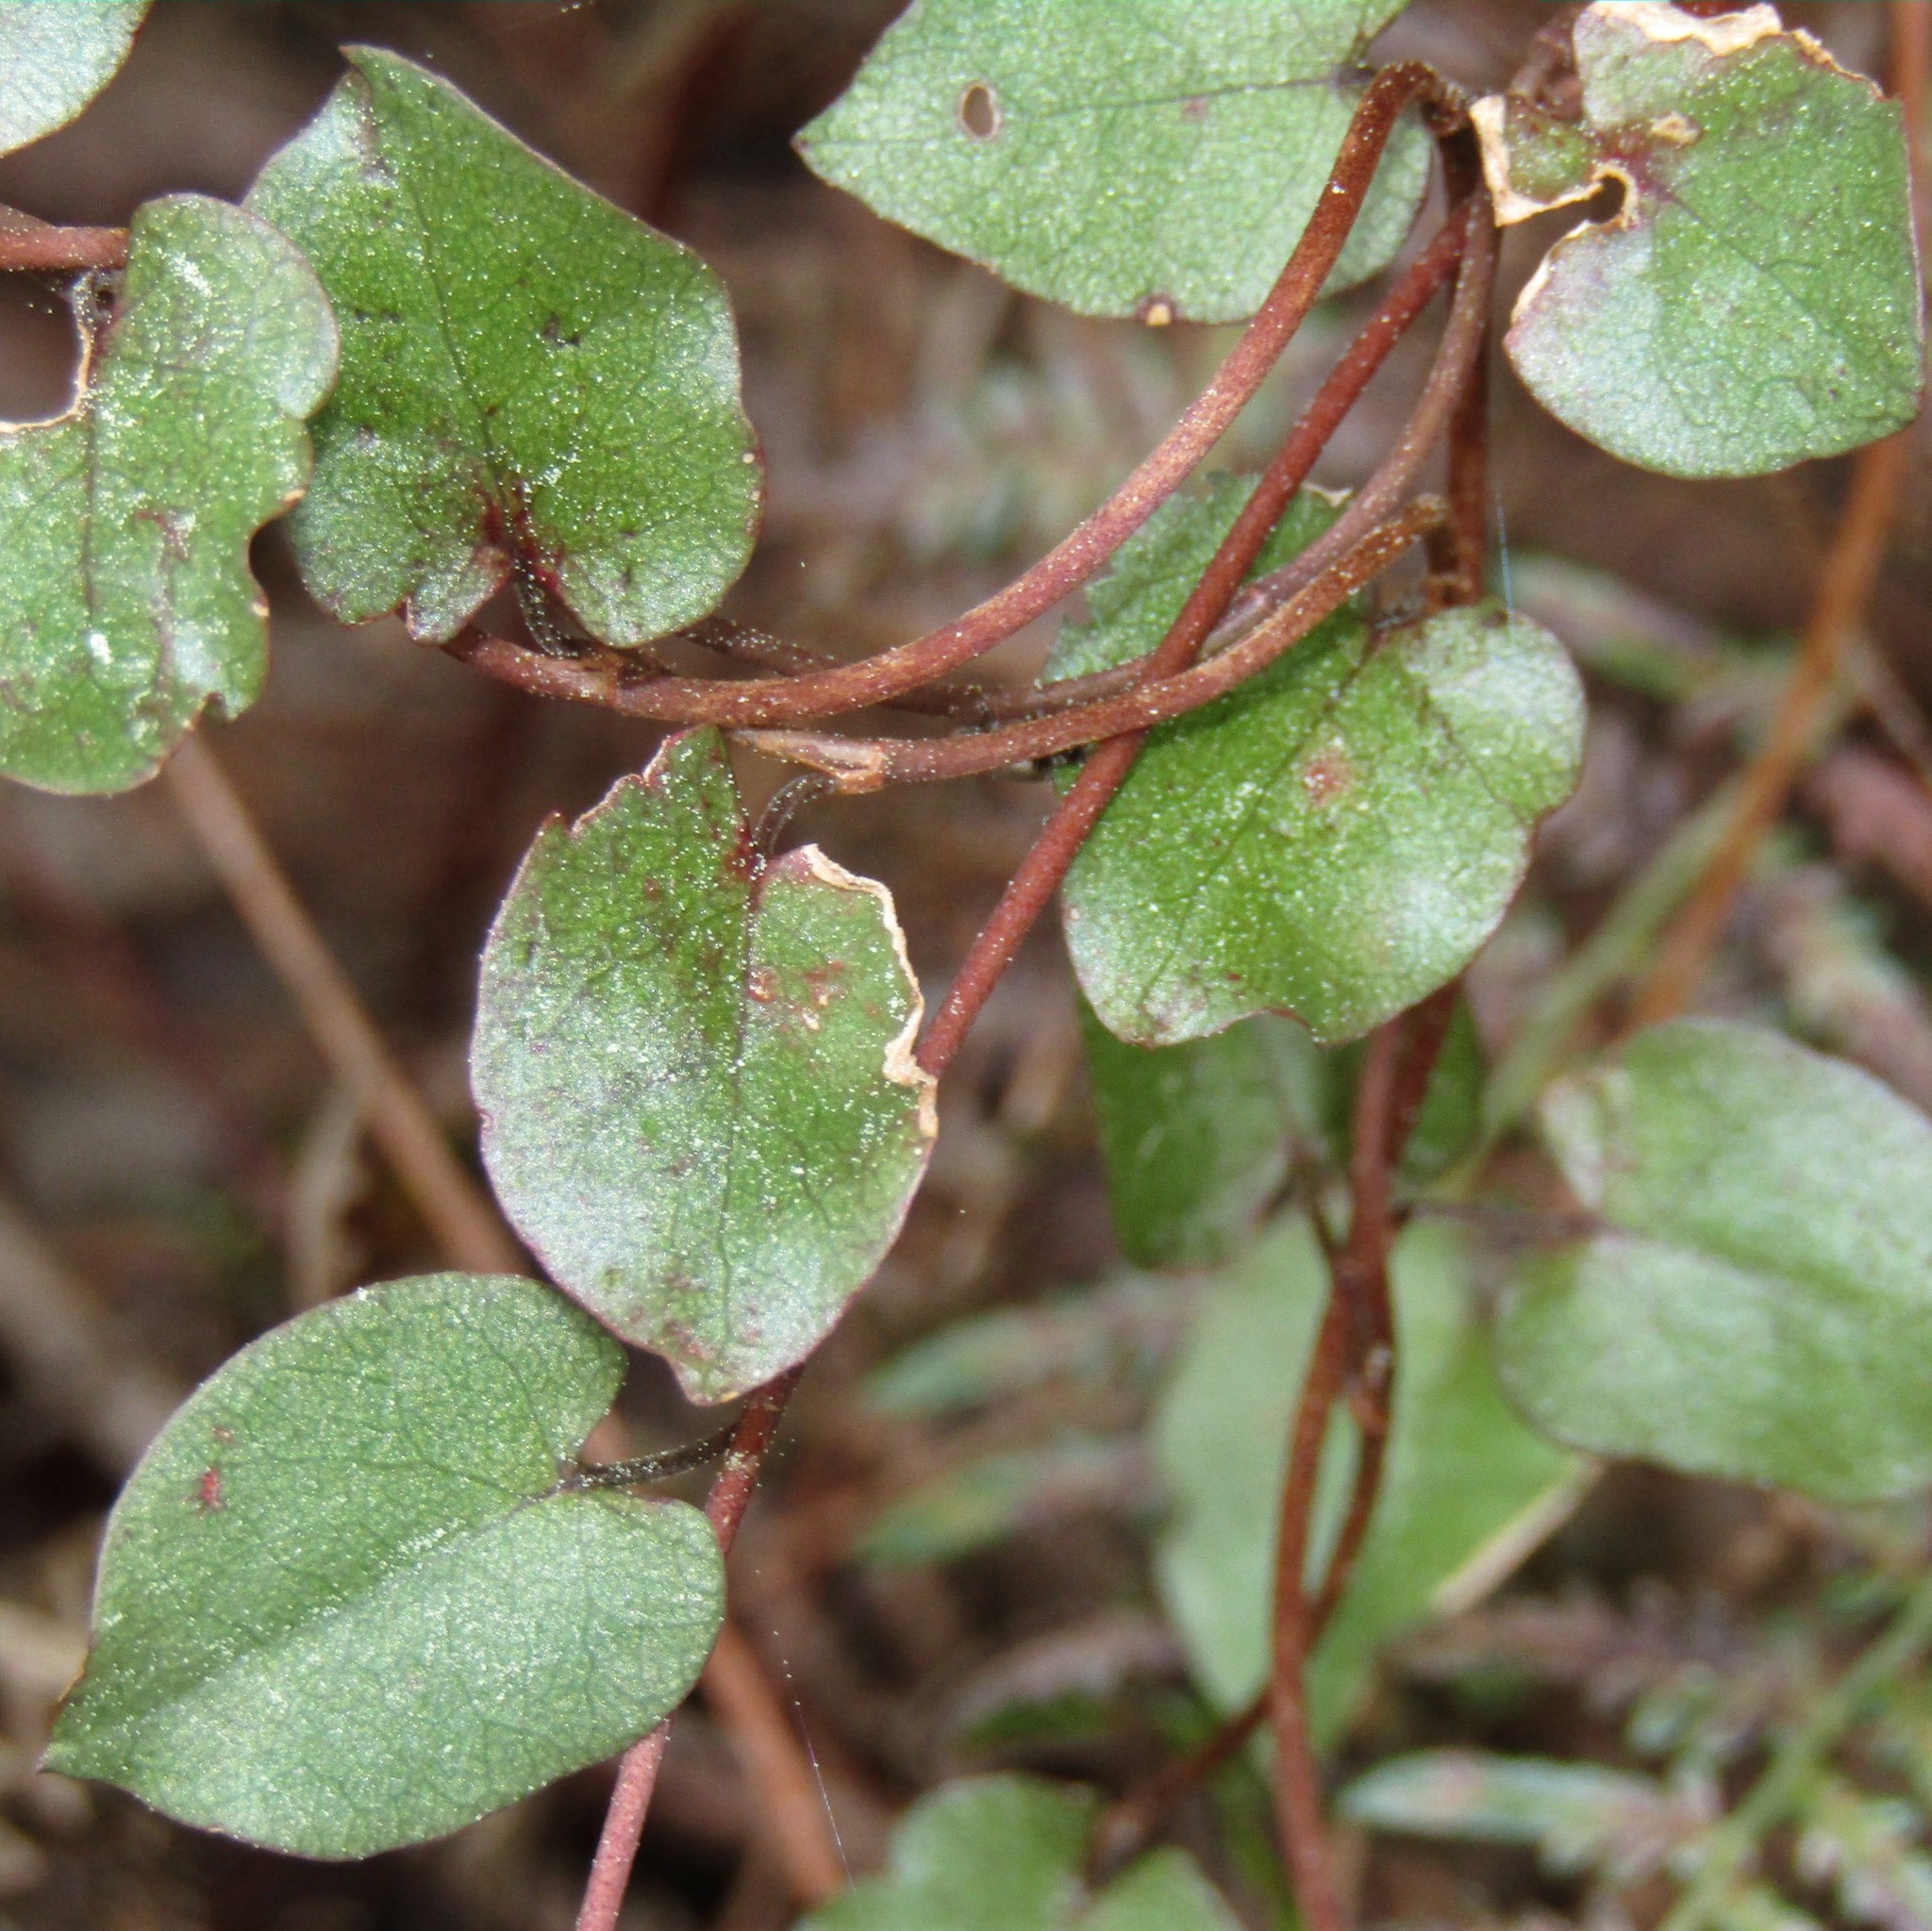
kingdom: Plantae
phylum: Tracheophyta
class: Magnoliopsida
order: Caryophyllales
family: Polygonaceae
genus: Muehlenbeckia
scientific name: Muehlenbeckia australis
